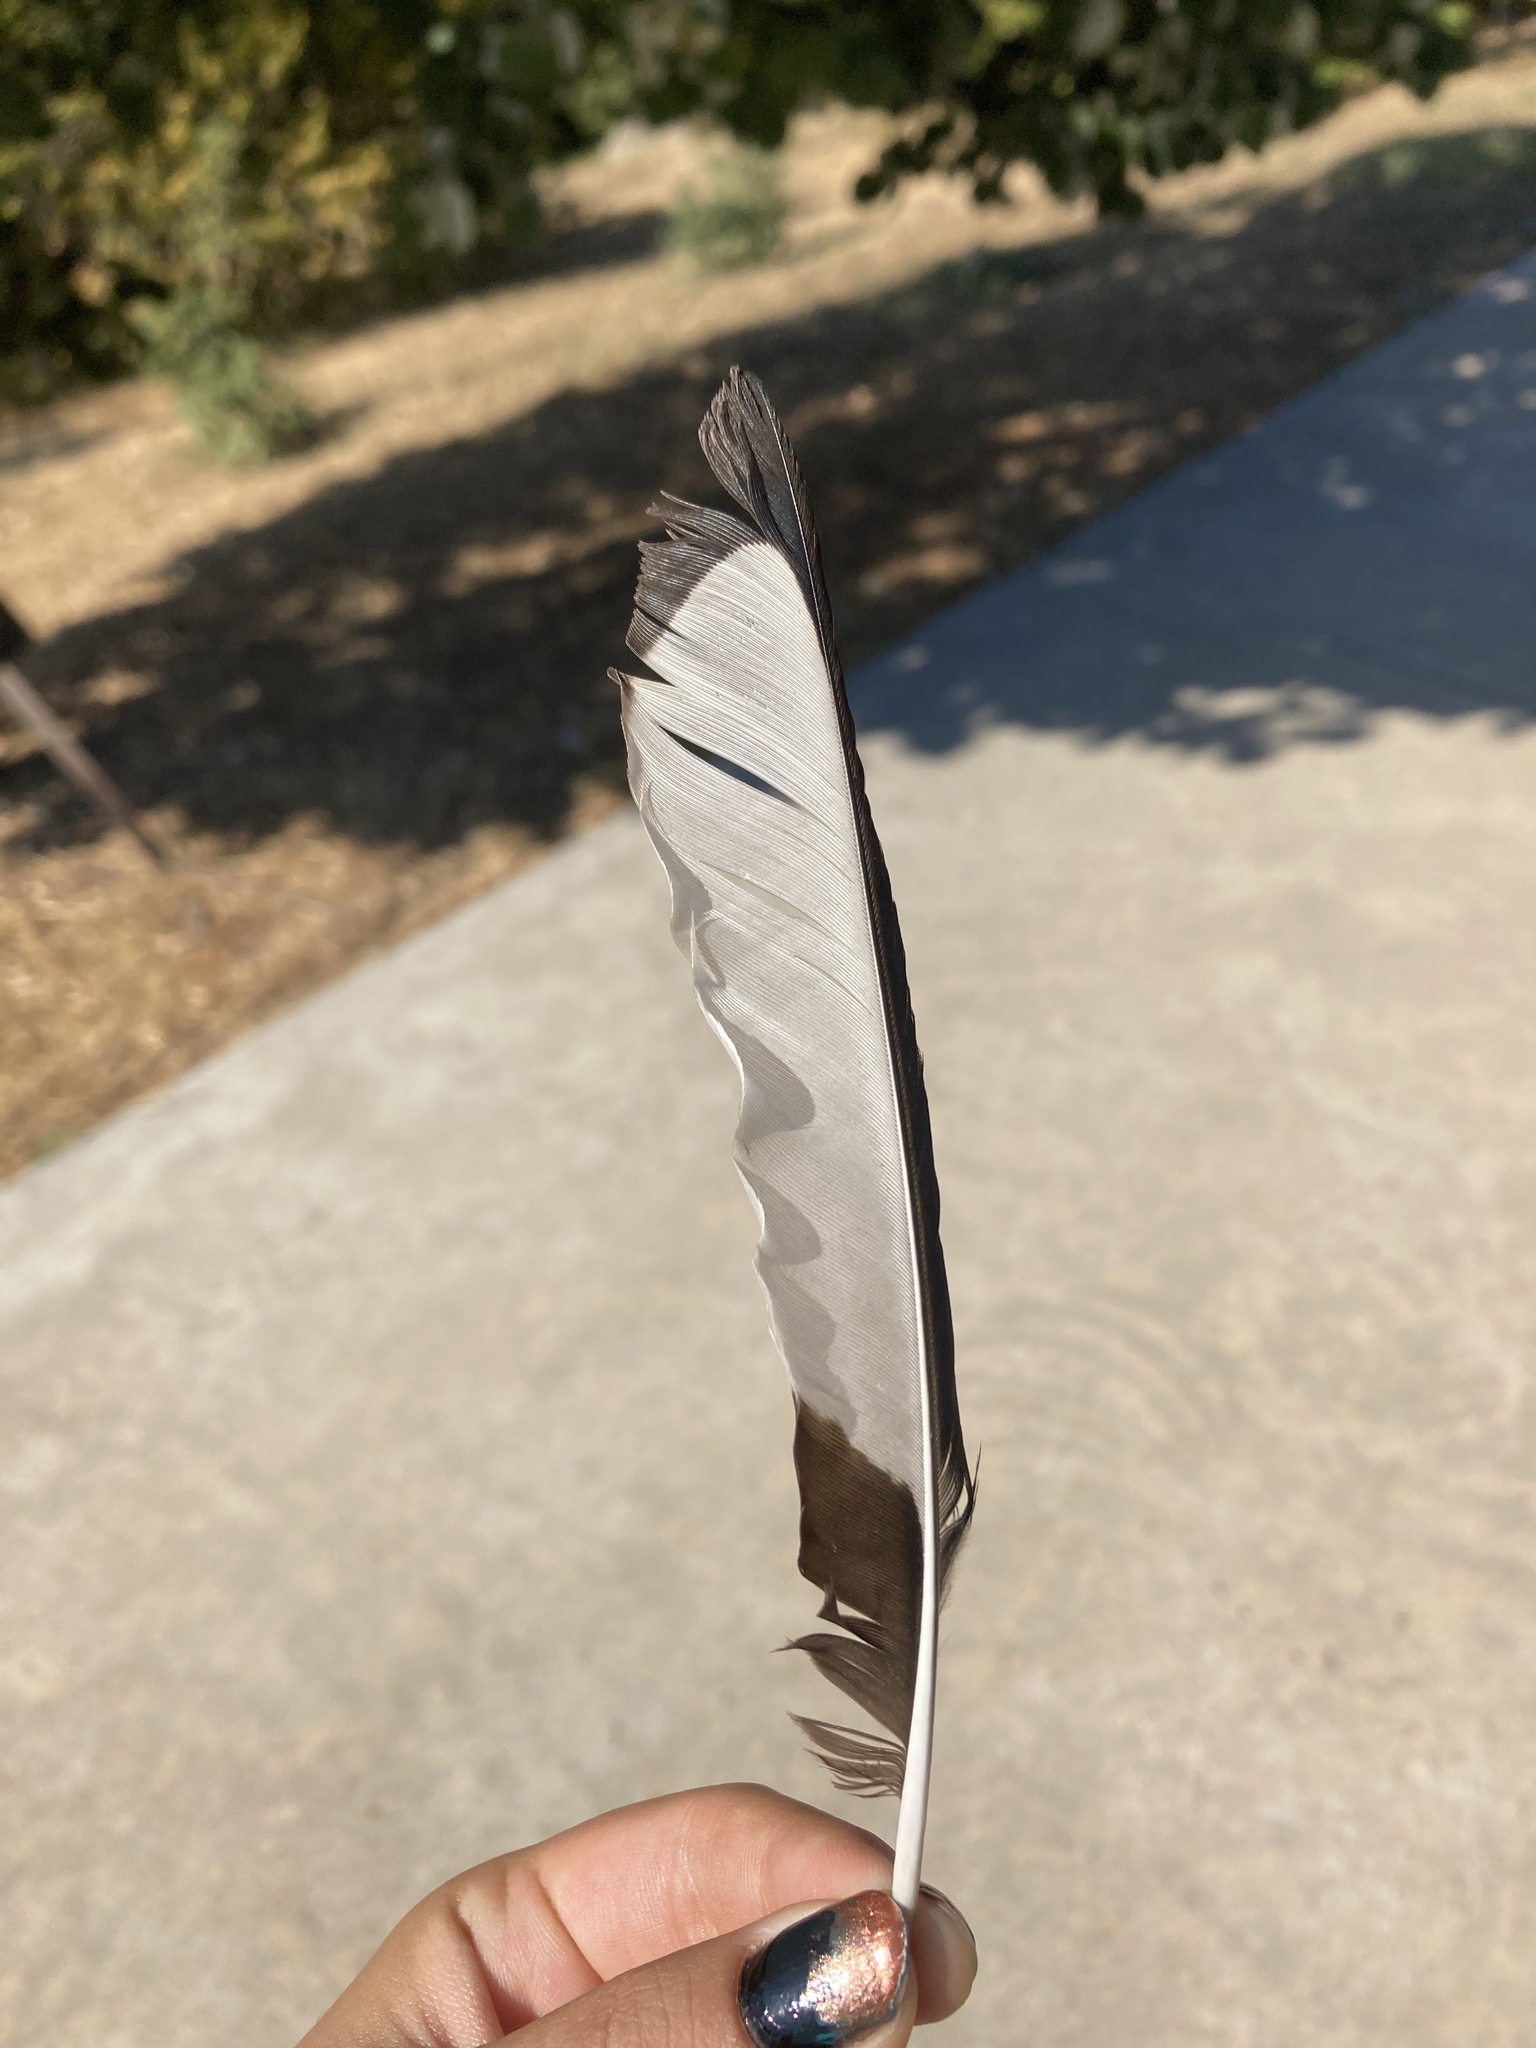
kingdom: Animalia
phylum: Chordata
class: Aves
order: Passeriformes
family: Corvidae
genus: Pica
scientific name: Pica pica
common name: Eurasian magpie
